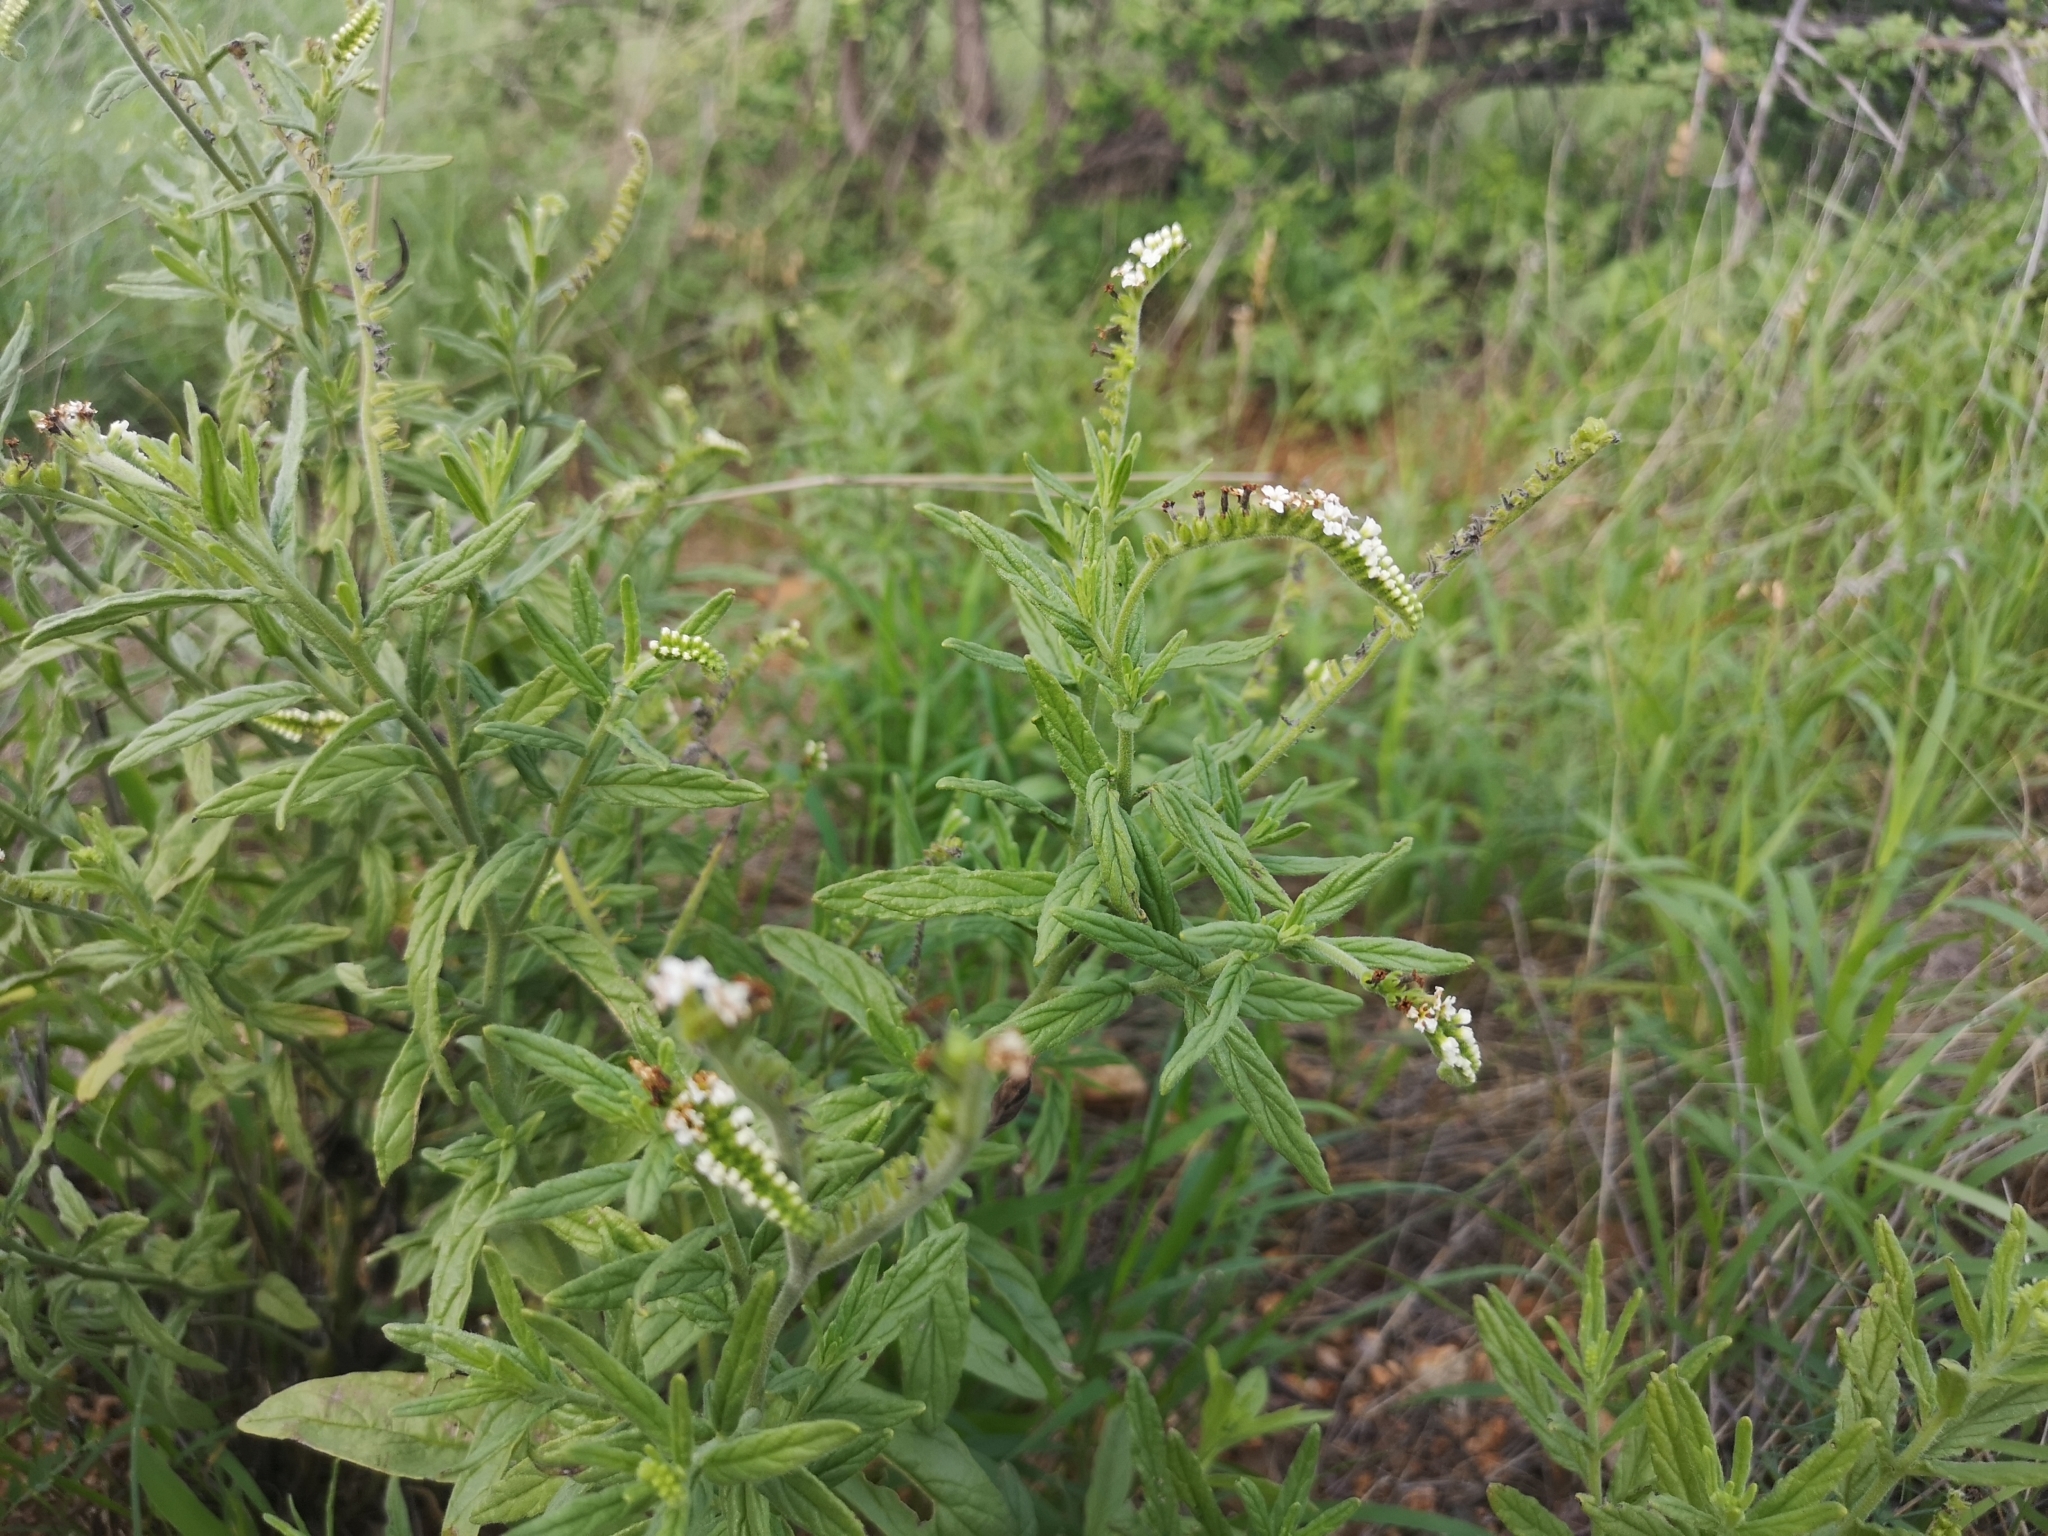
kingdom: Plantae
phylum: Tracheophyta
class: Magnoliopsida
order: Boraginales
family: Heliotropiaceae
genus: Heliotropium
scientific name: Heliotropium steudneri
